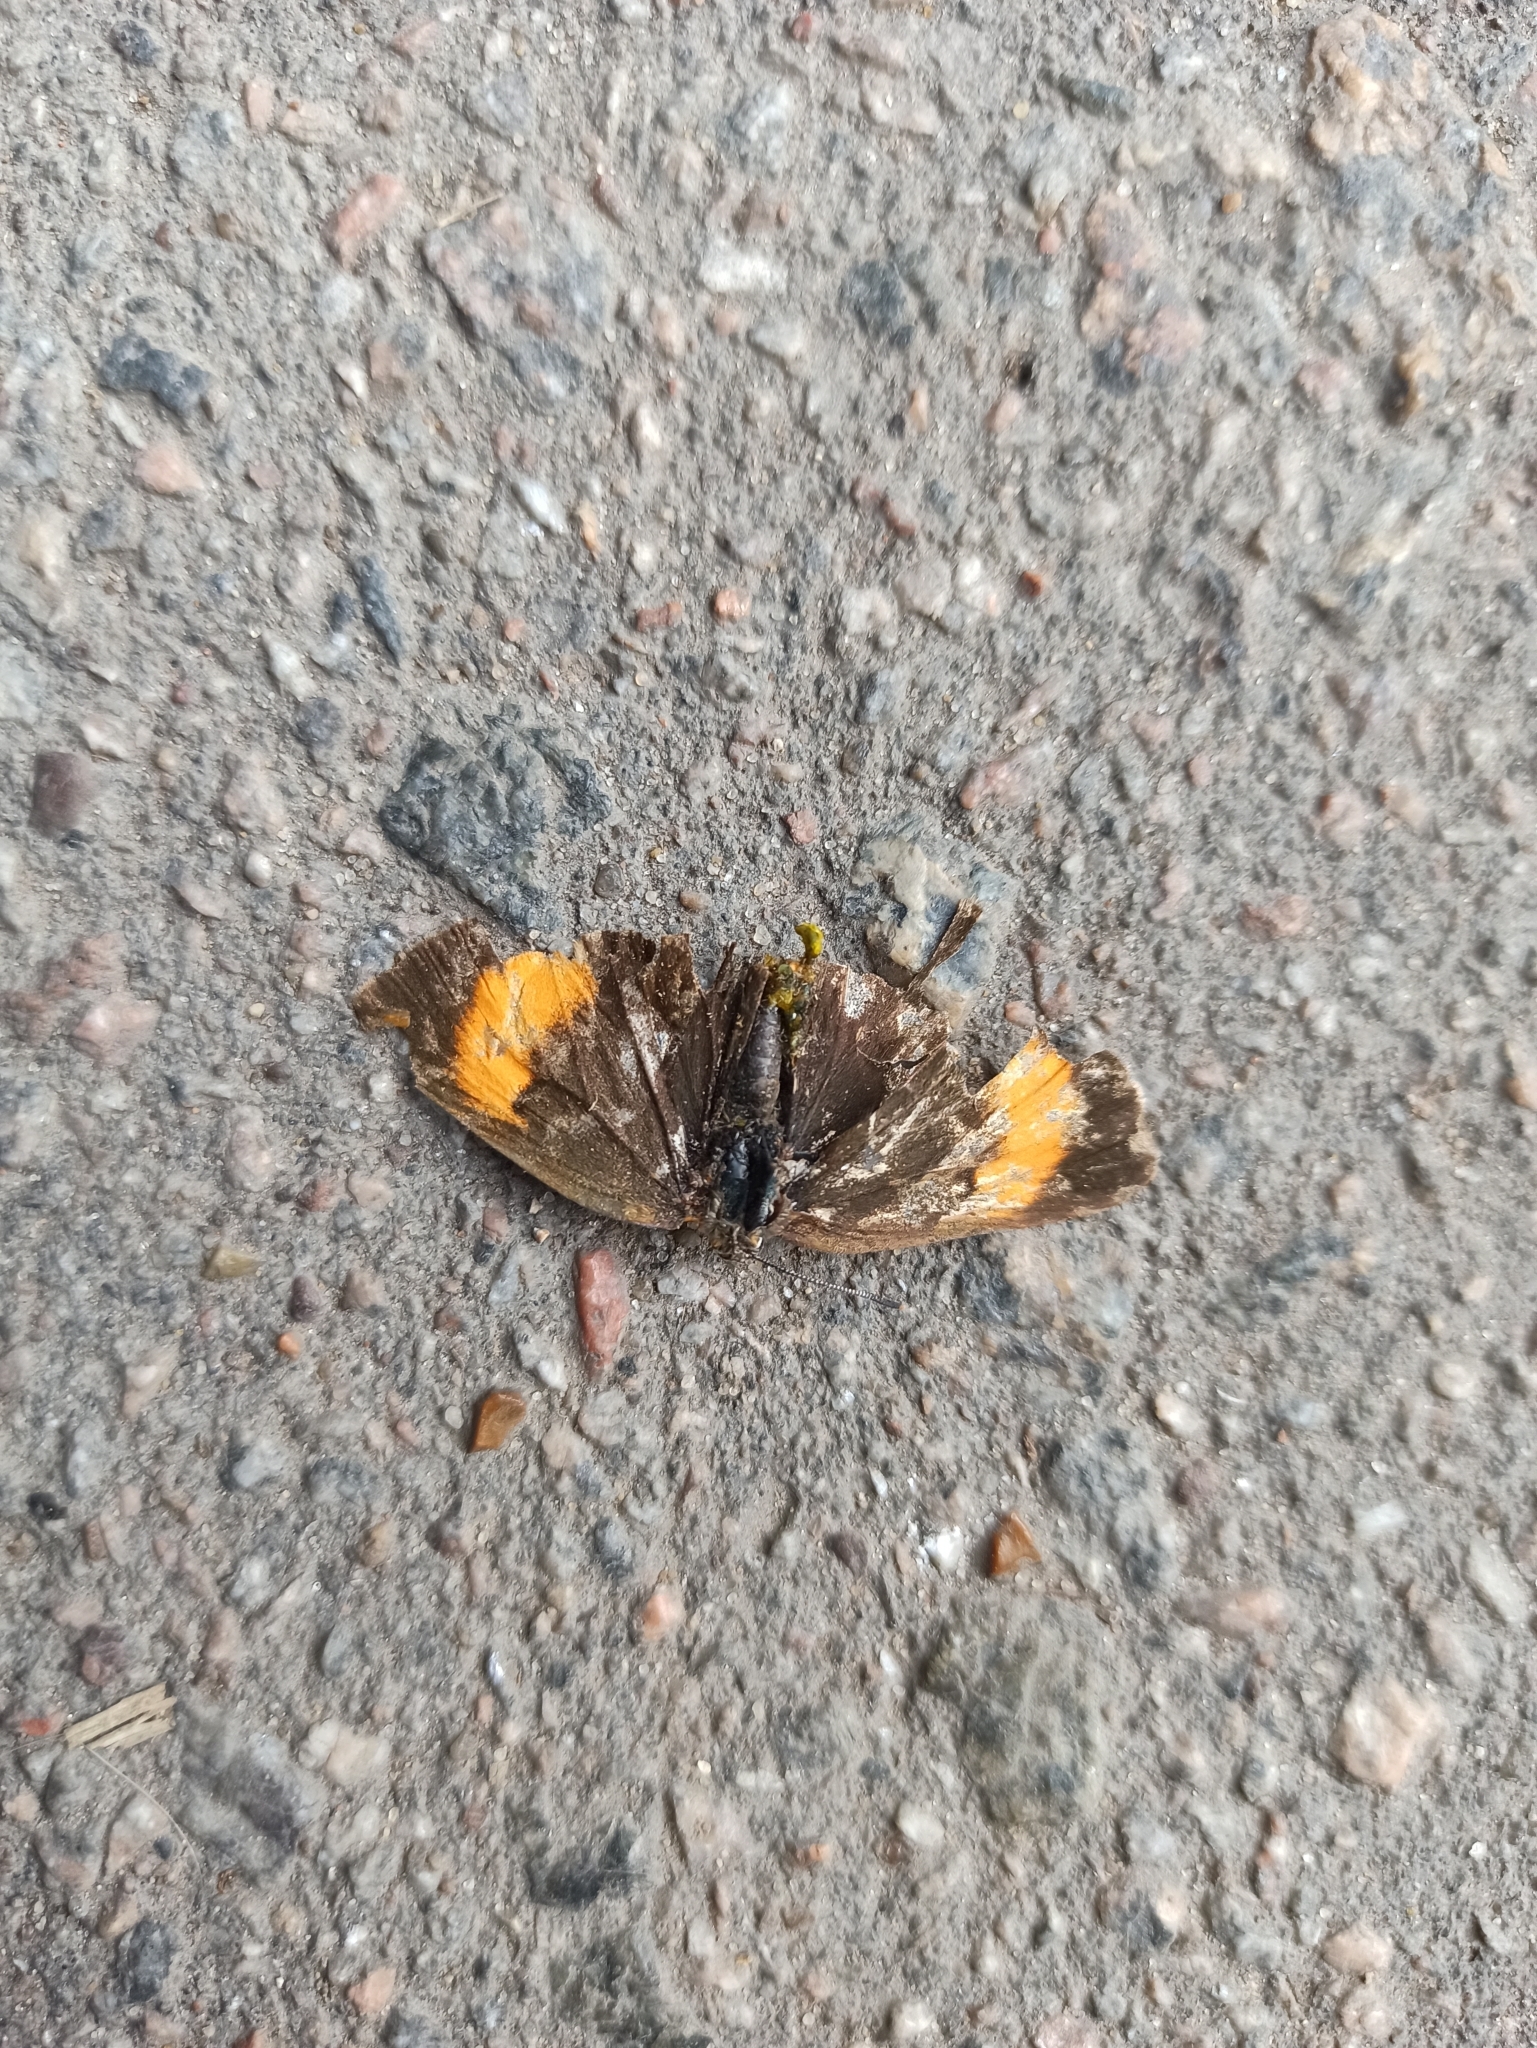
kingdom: Animalia
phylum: Arthropoda
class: Insecta
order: Lepidoptera
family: Lycaenidae
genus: Thecla
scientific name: Thecla betulae
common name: Brown hairstreak
